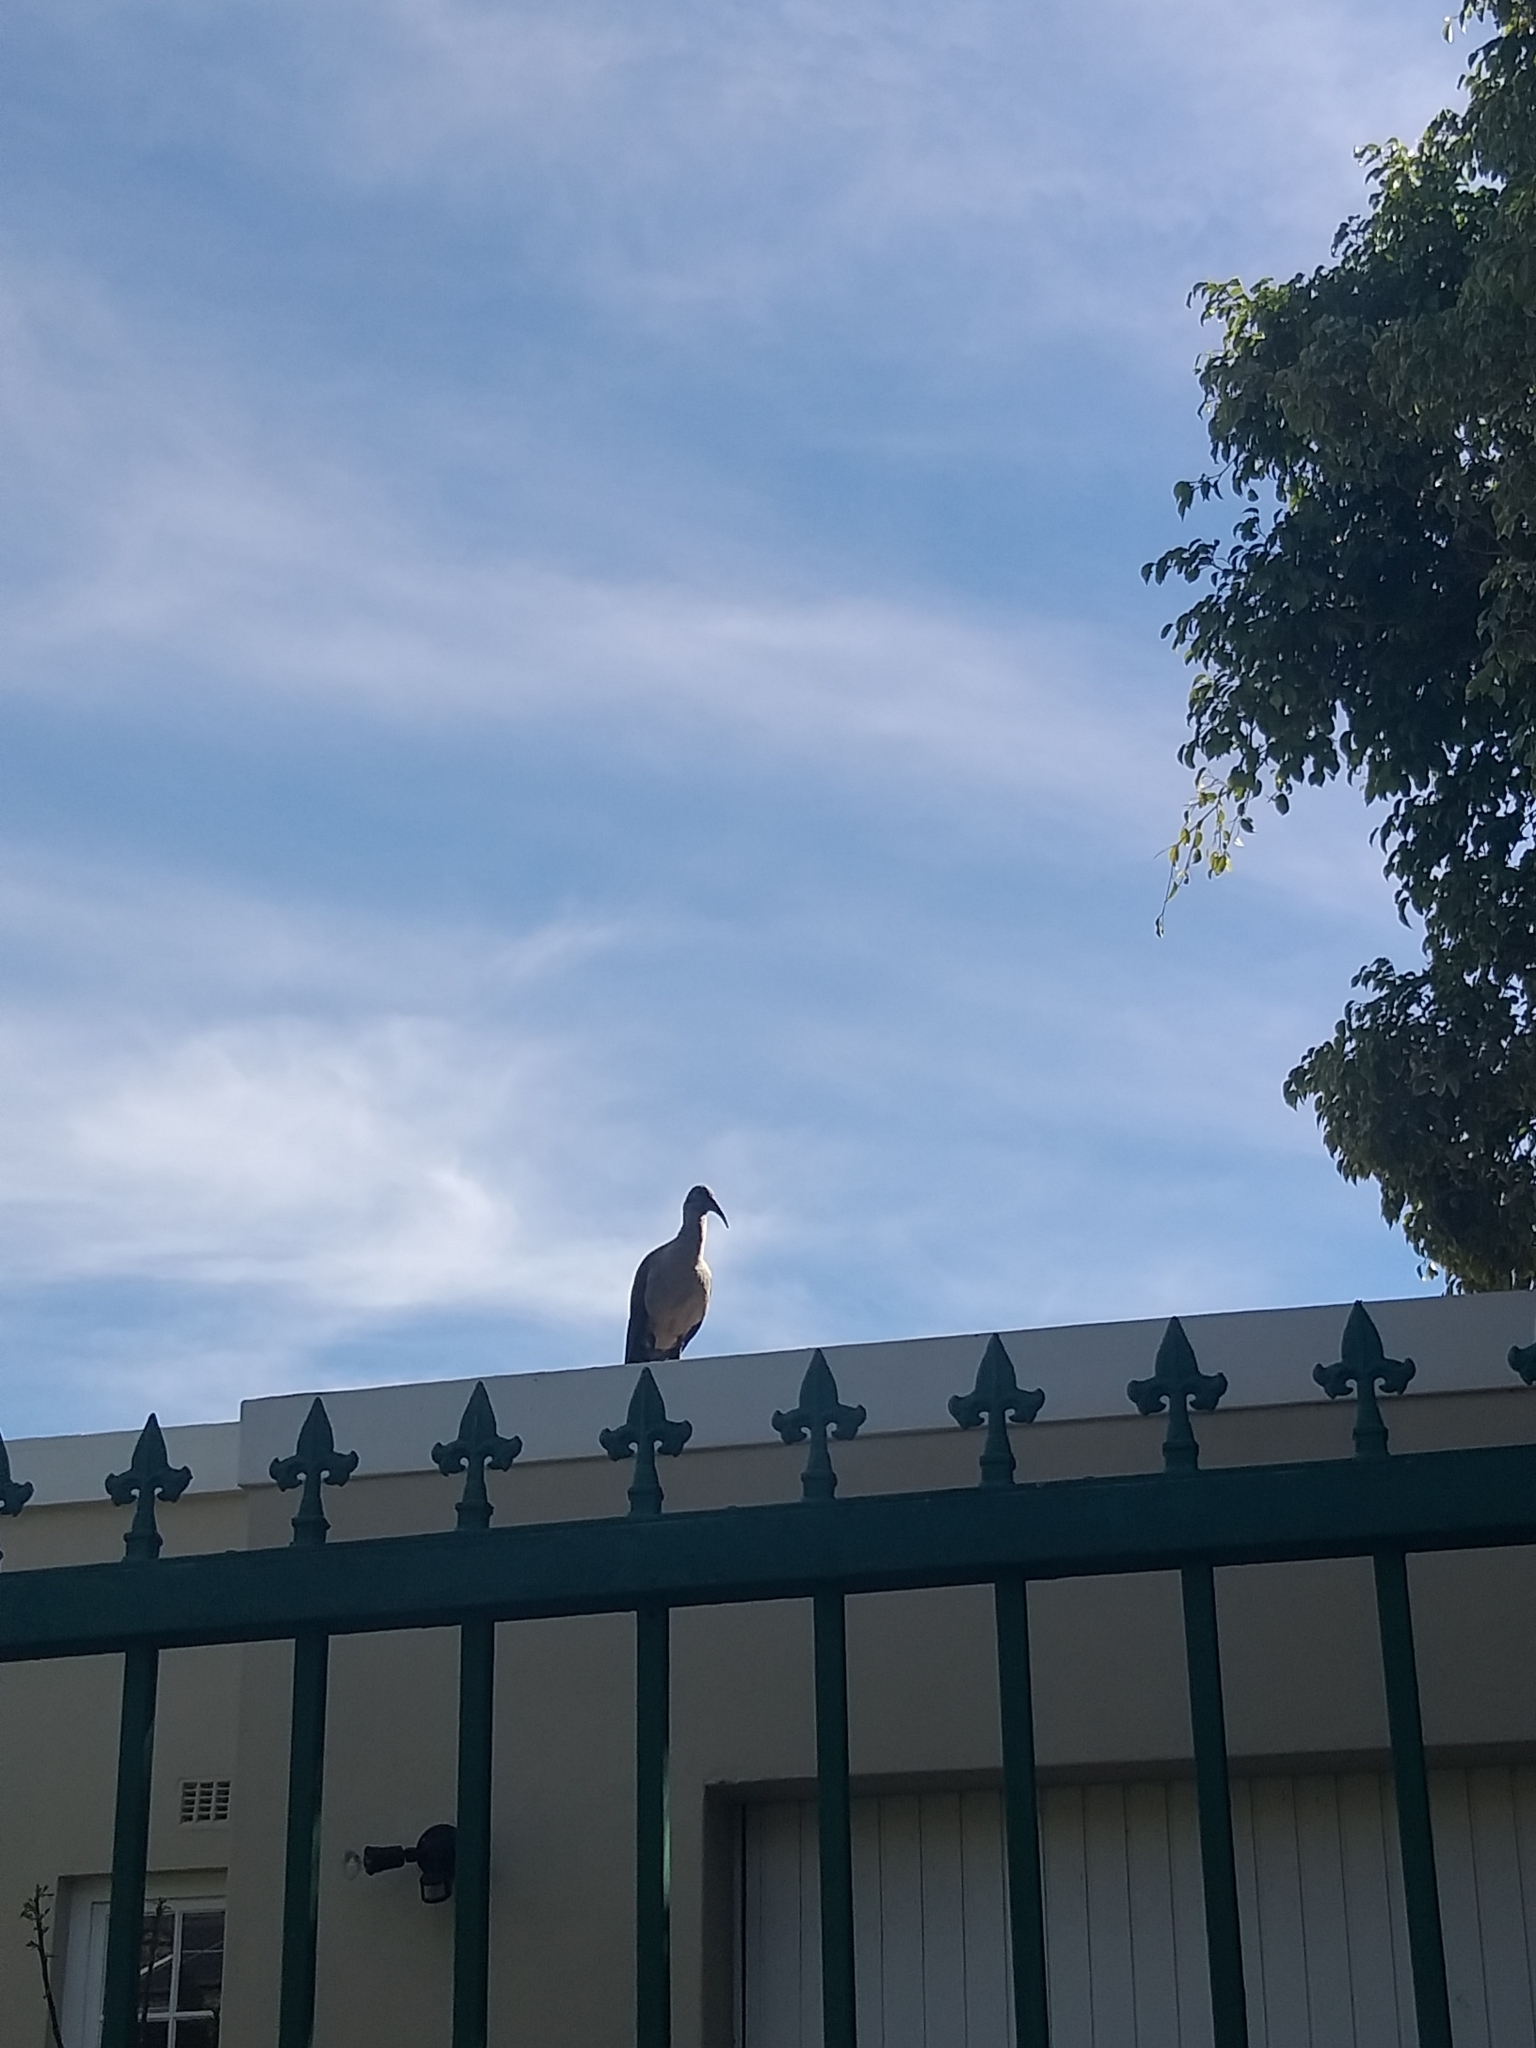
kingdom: Animalia
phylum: Chordata
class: Aves
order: Pelecaniformes
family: Threskiornithidae
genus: Bostrychia
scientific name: Bostrychia hagedash
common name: Hadada ibis
